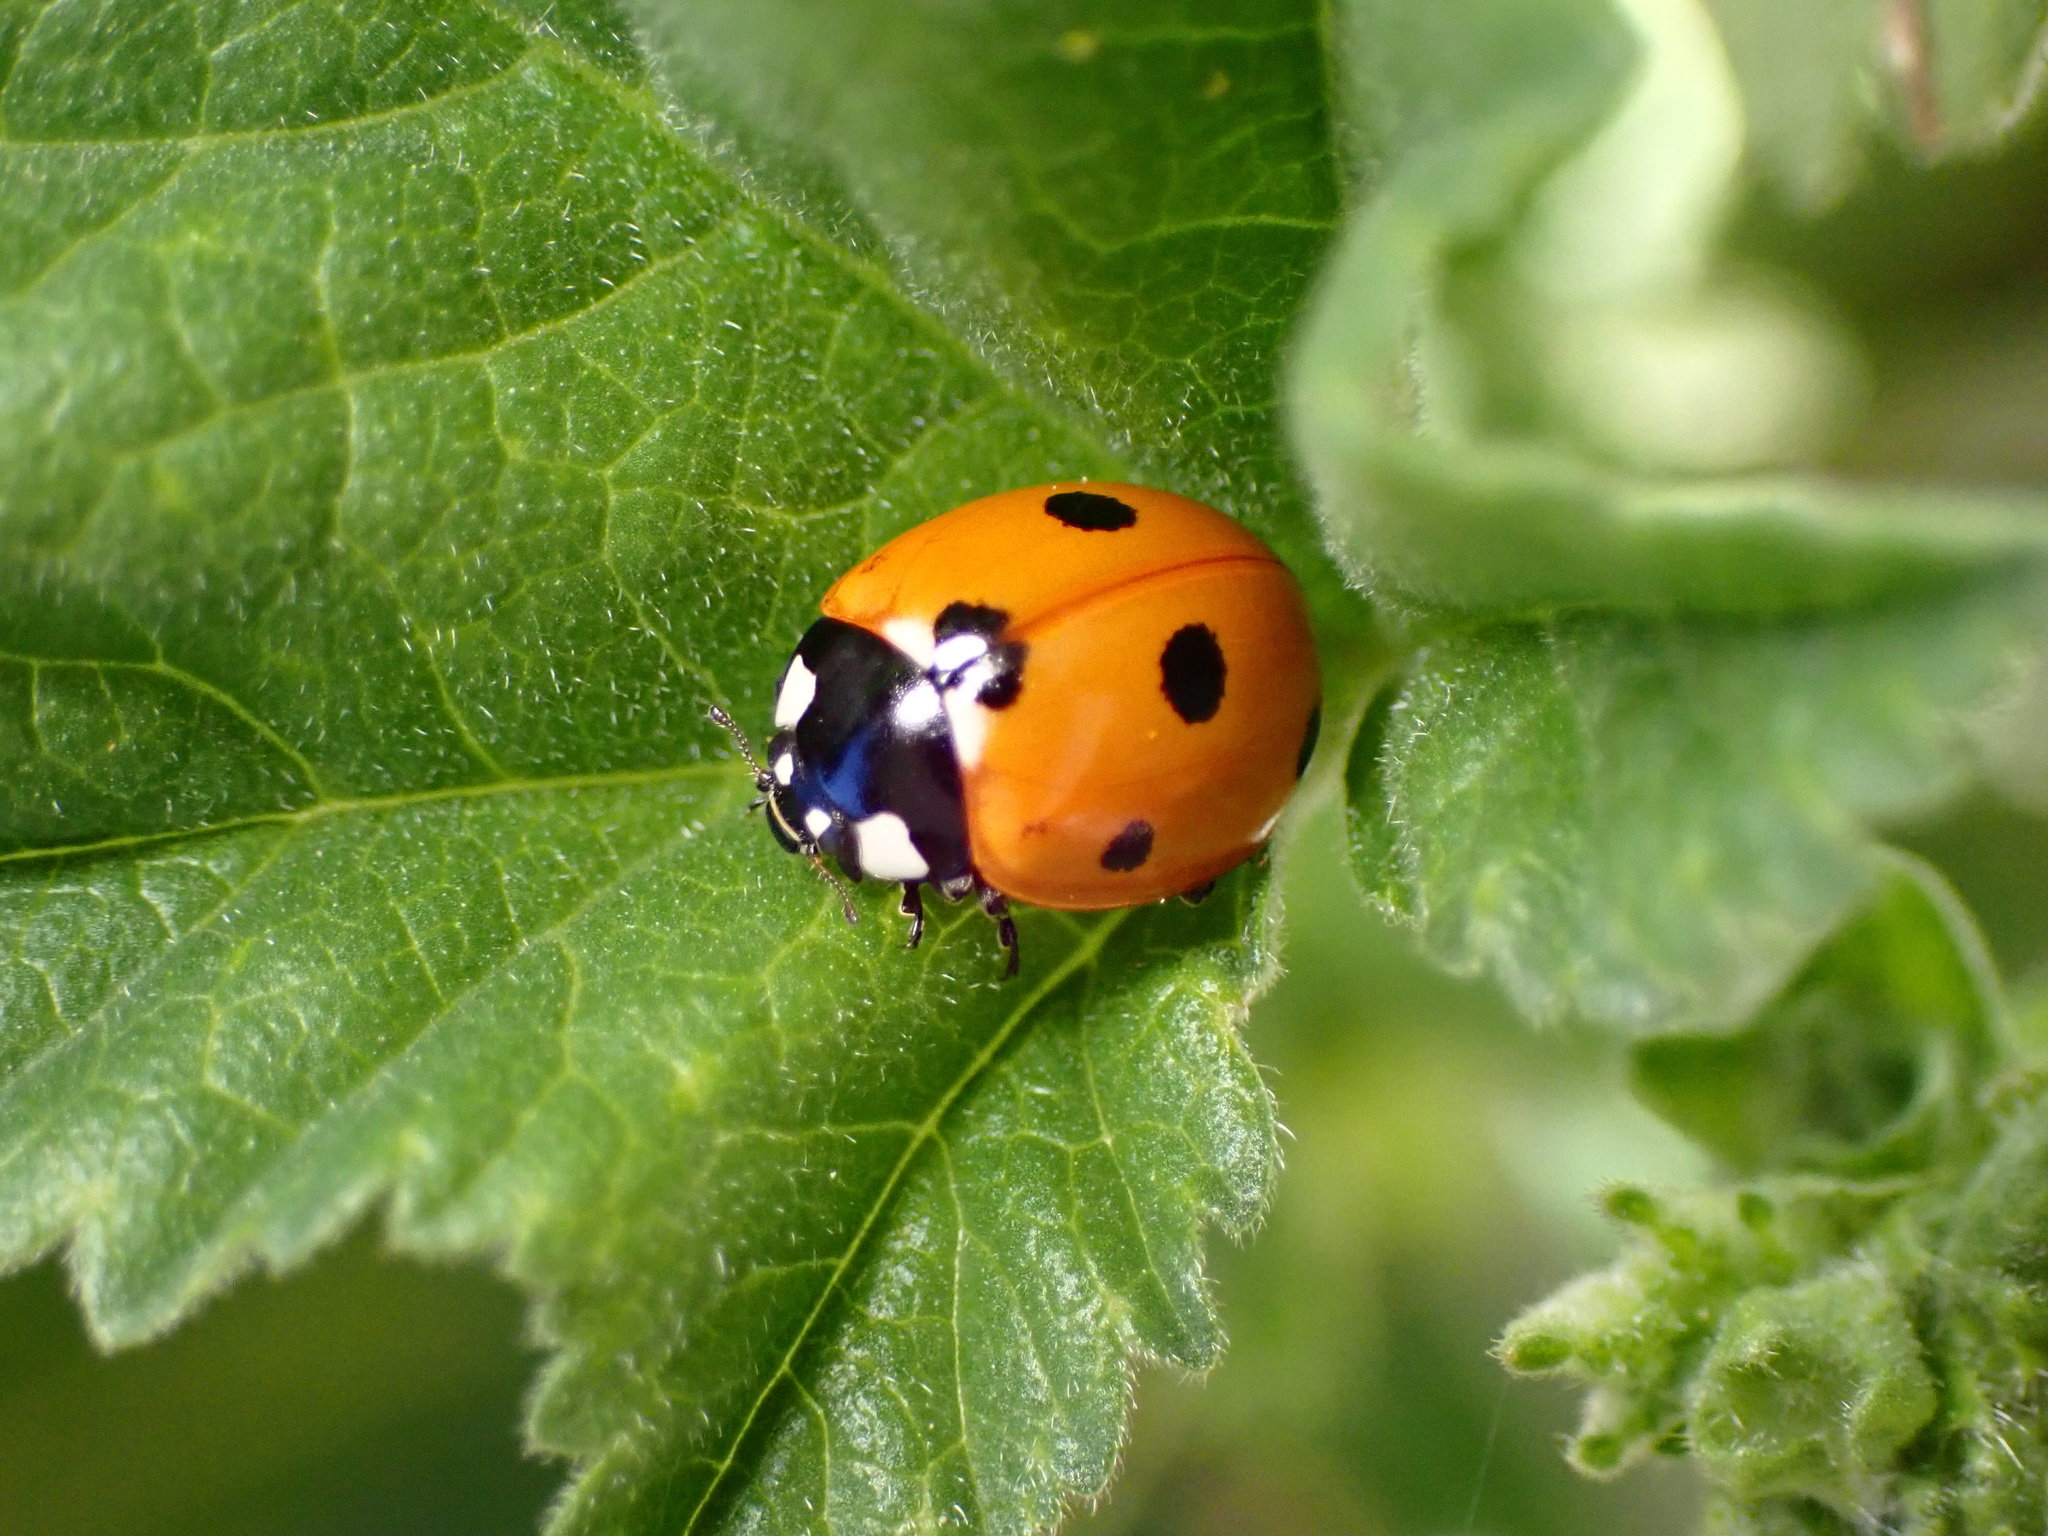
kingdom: Animalia
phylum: Arthropoda
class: Insecta
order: Coleoptera
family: Coccinellidae
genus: Coccinella
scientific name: Coccinella septempunctata
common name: Sevenspotted lady beetle
